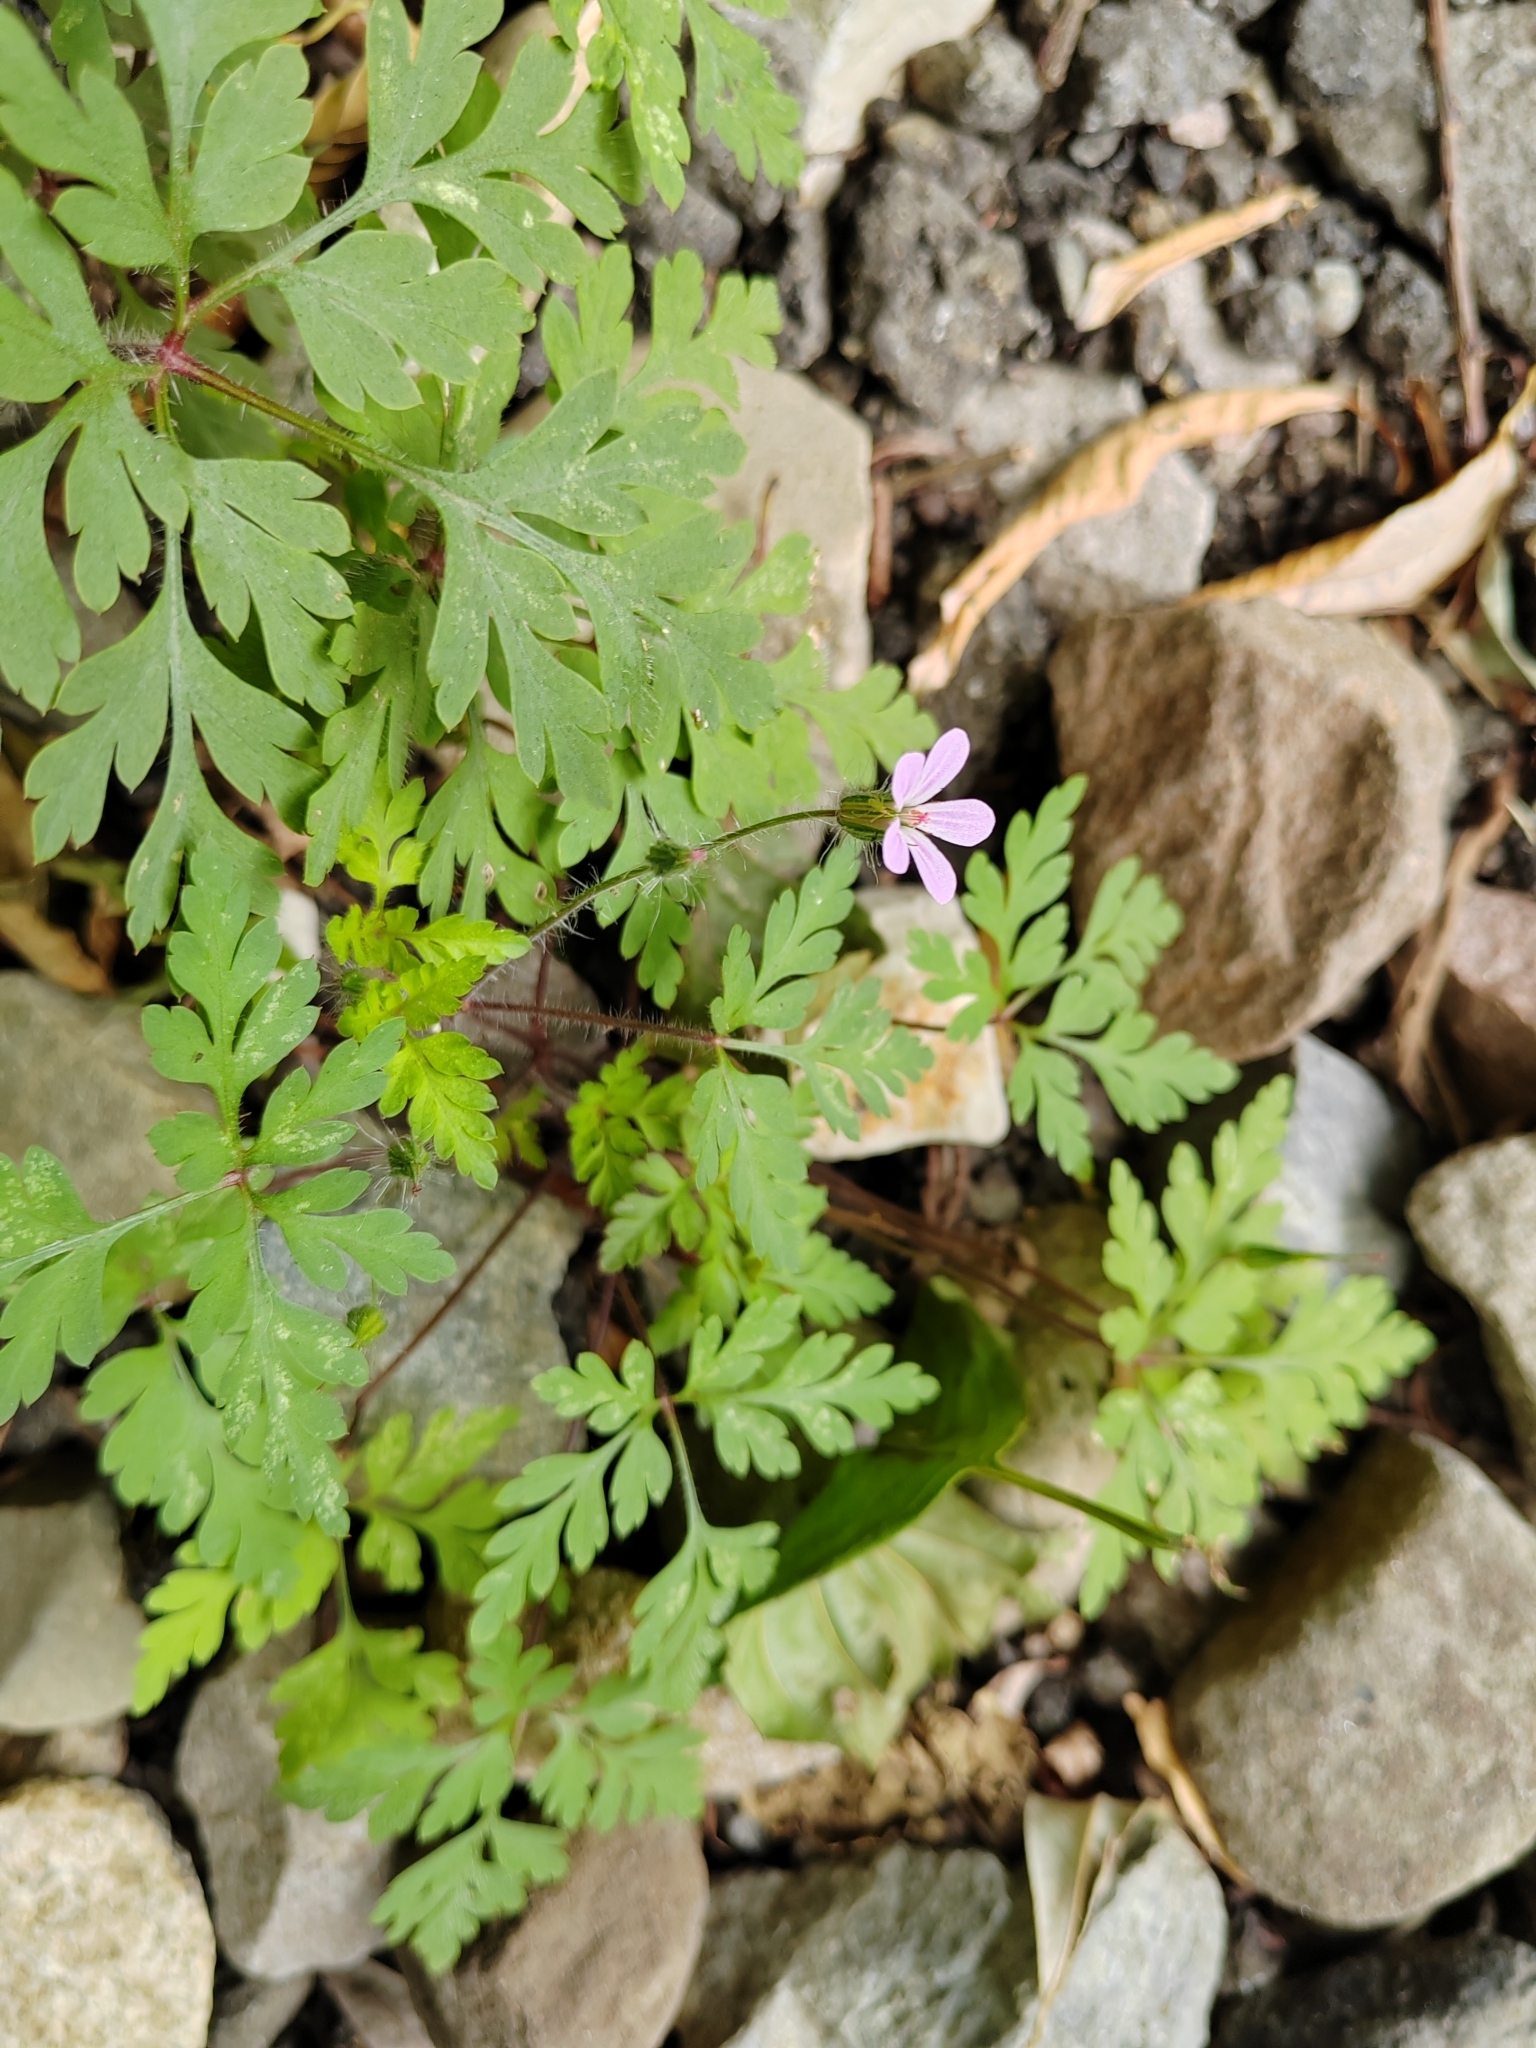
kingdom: Plantae
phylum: Tracheophyta
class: Magnoliopsida
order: Geraniales
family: Geraniaceae
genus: Geranium
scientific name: Geranium robertianum
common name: Herb-robert
